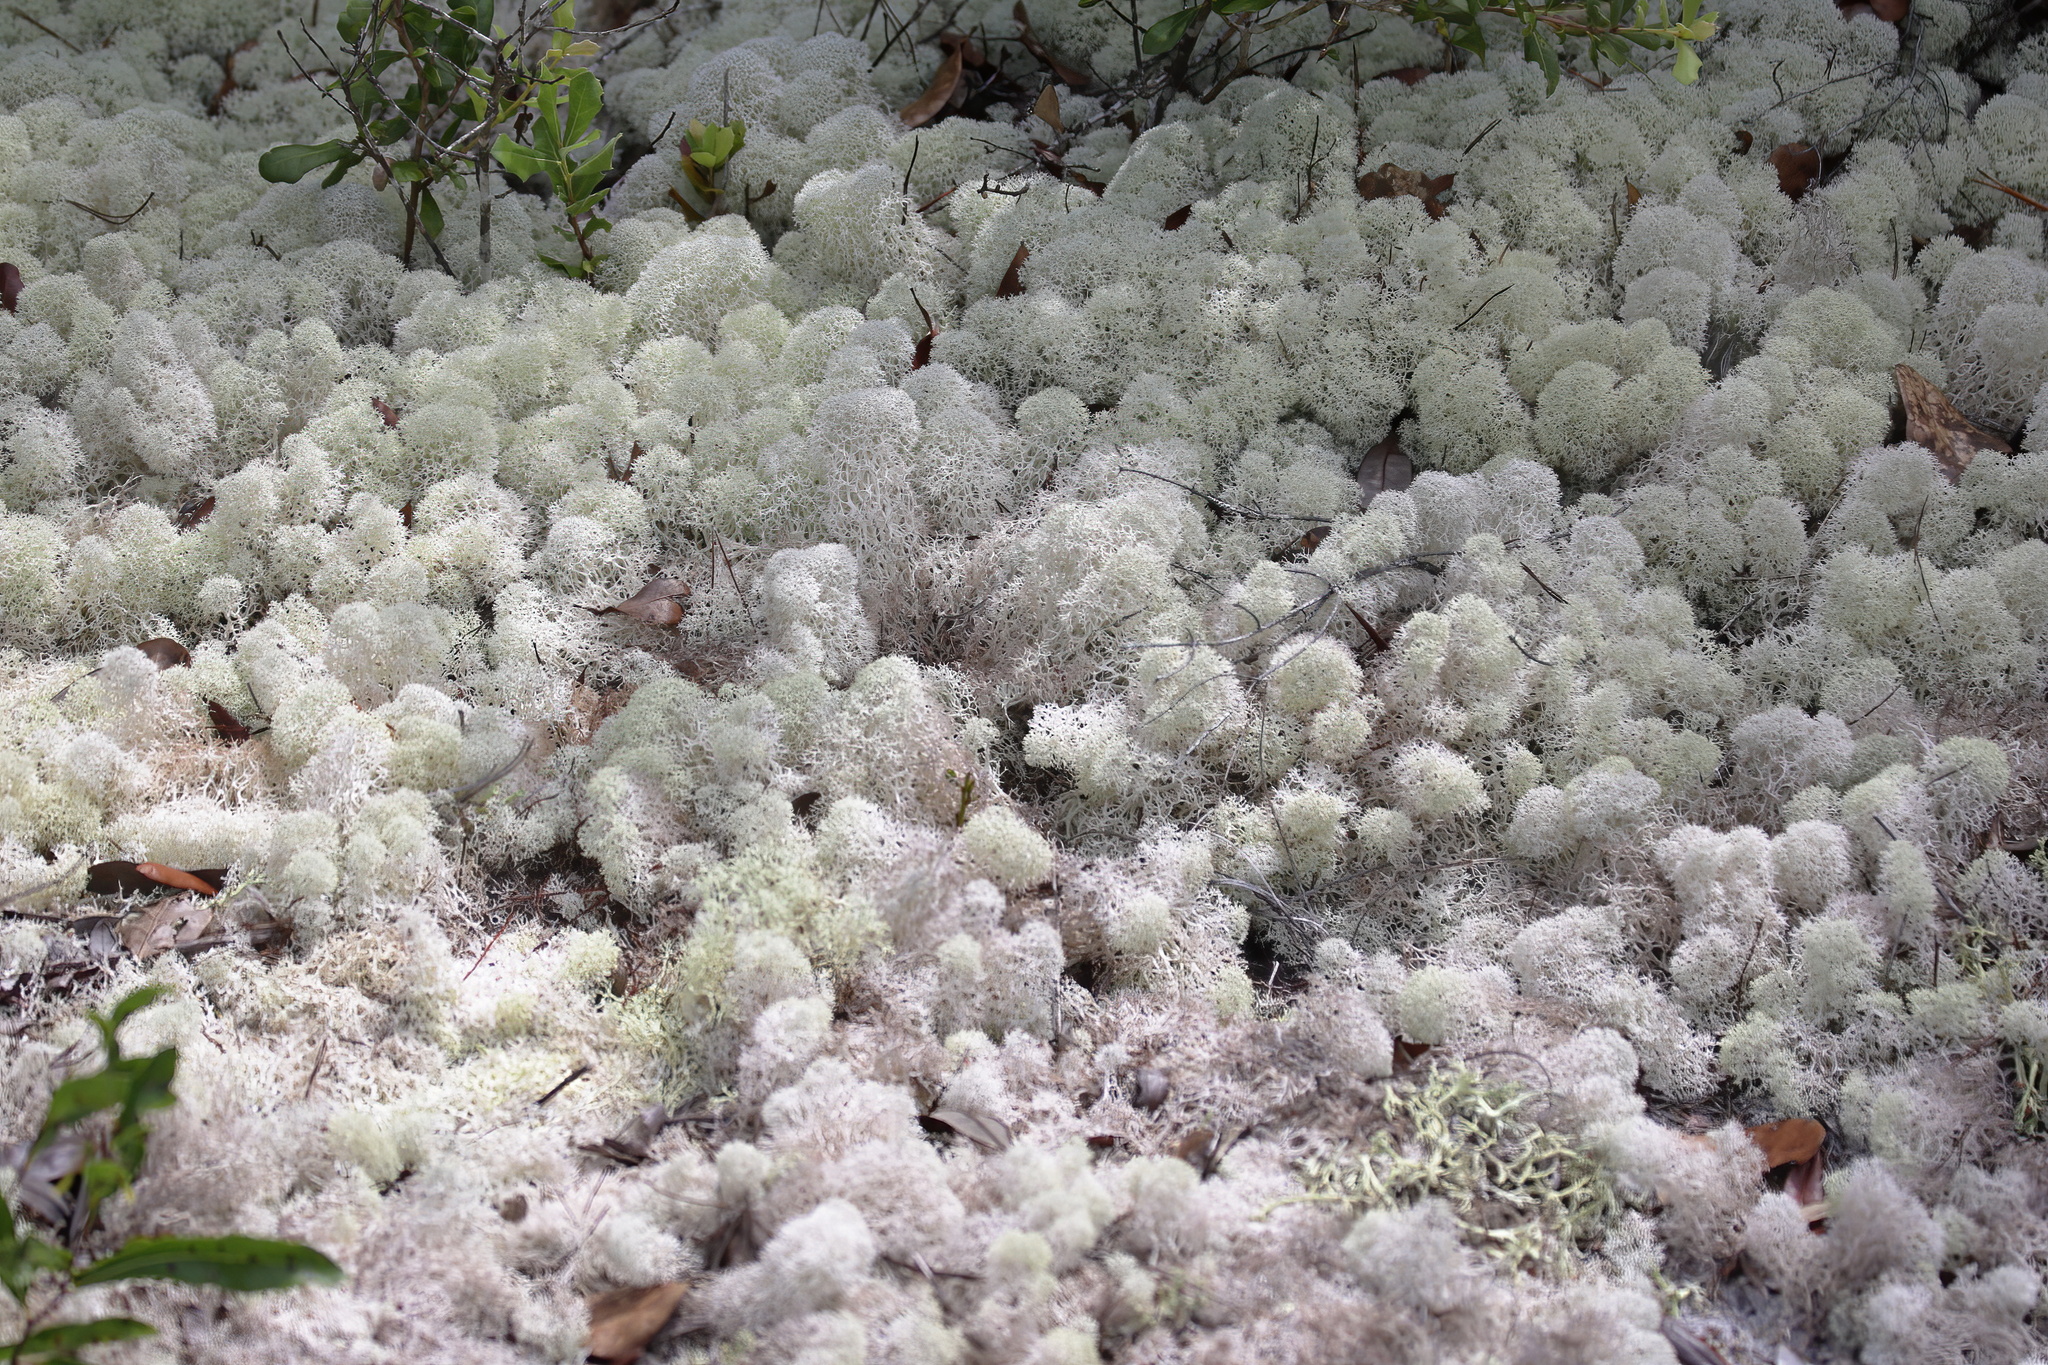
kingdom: Fungi
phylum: Ascomycota
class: Lecanoromycetes
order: Lecanorales
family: Cladoniaceae
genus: Cladonia
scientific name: Cladonia evansii
